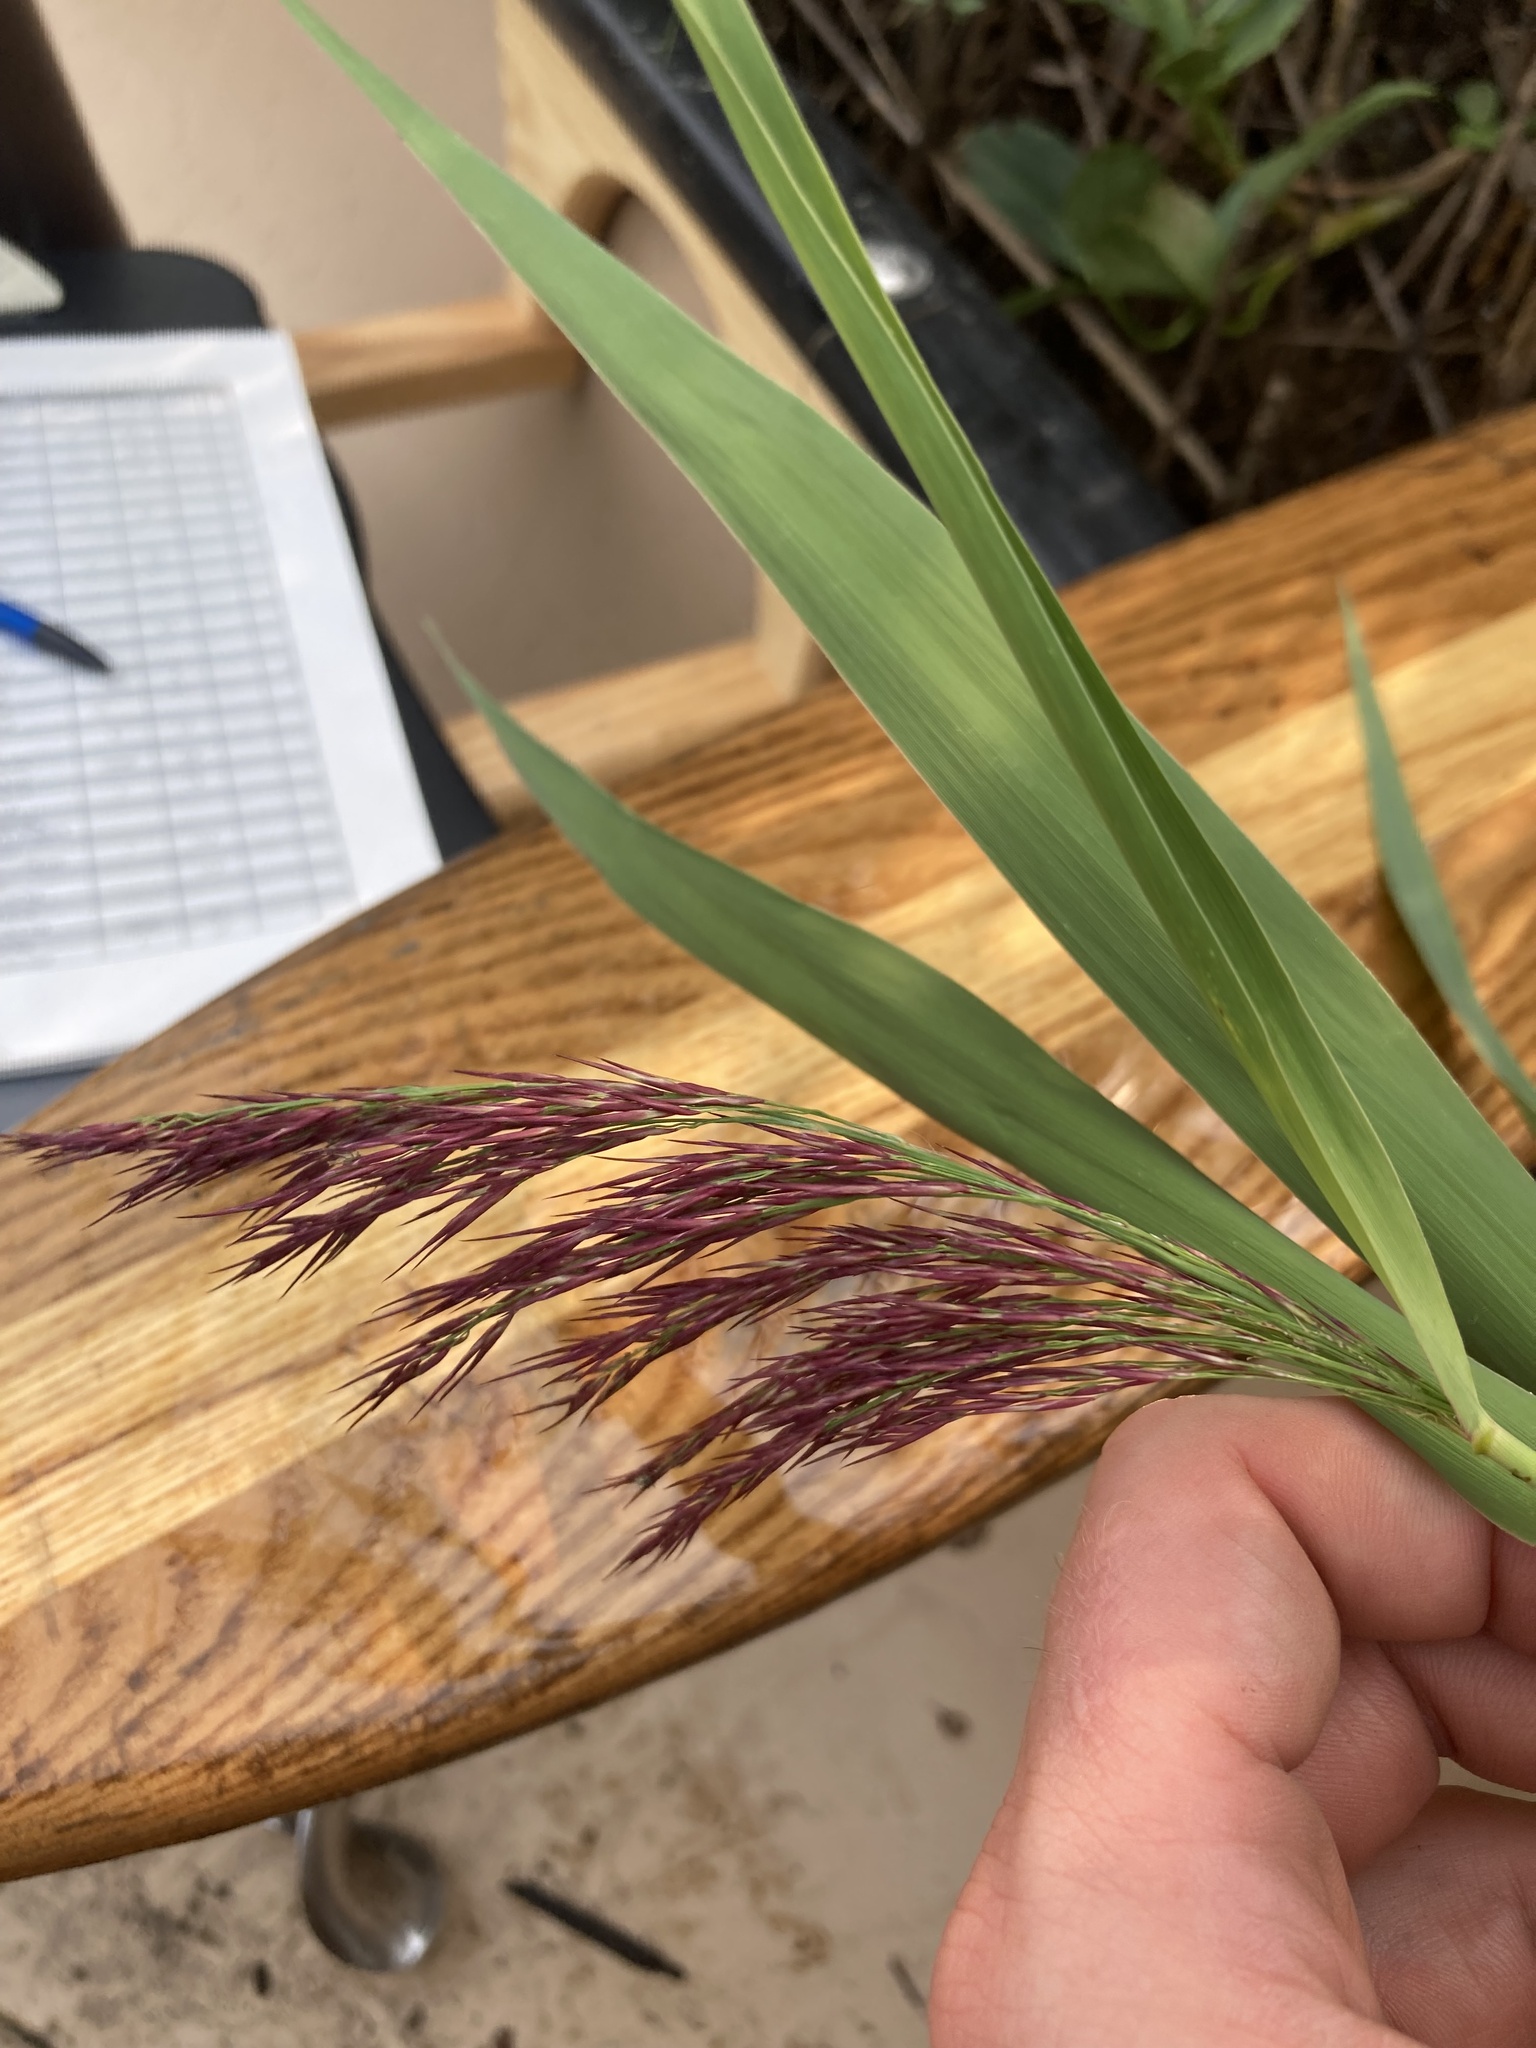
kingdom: Plantae
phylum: Tracheophyta
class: Liliopsida
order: Poales
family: Poaceae
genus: Phragmites
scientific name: Phragmites australis
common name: Common reed
